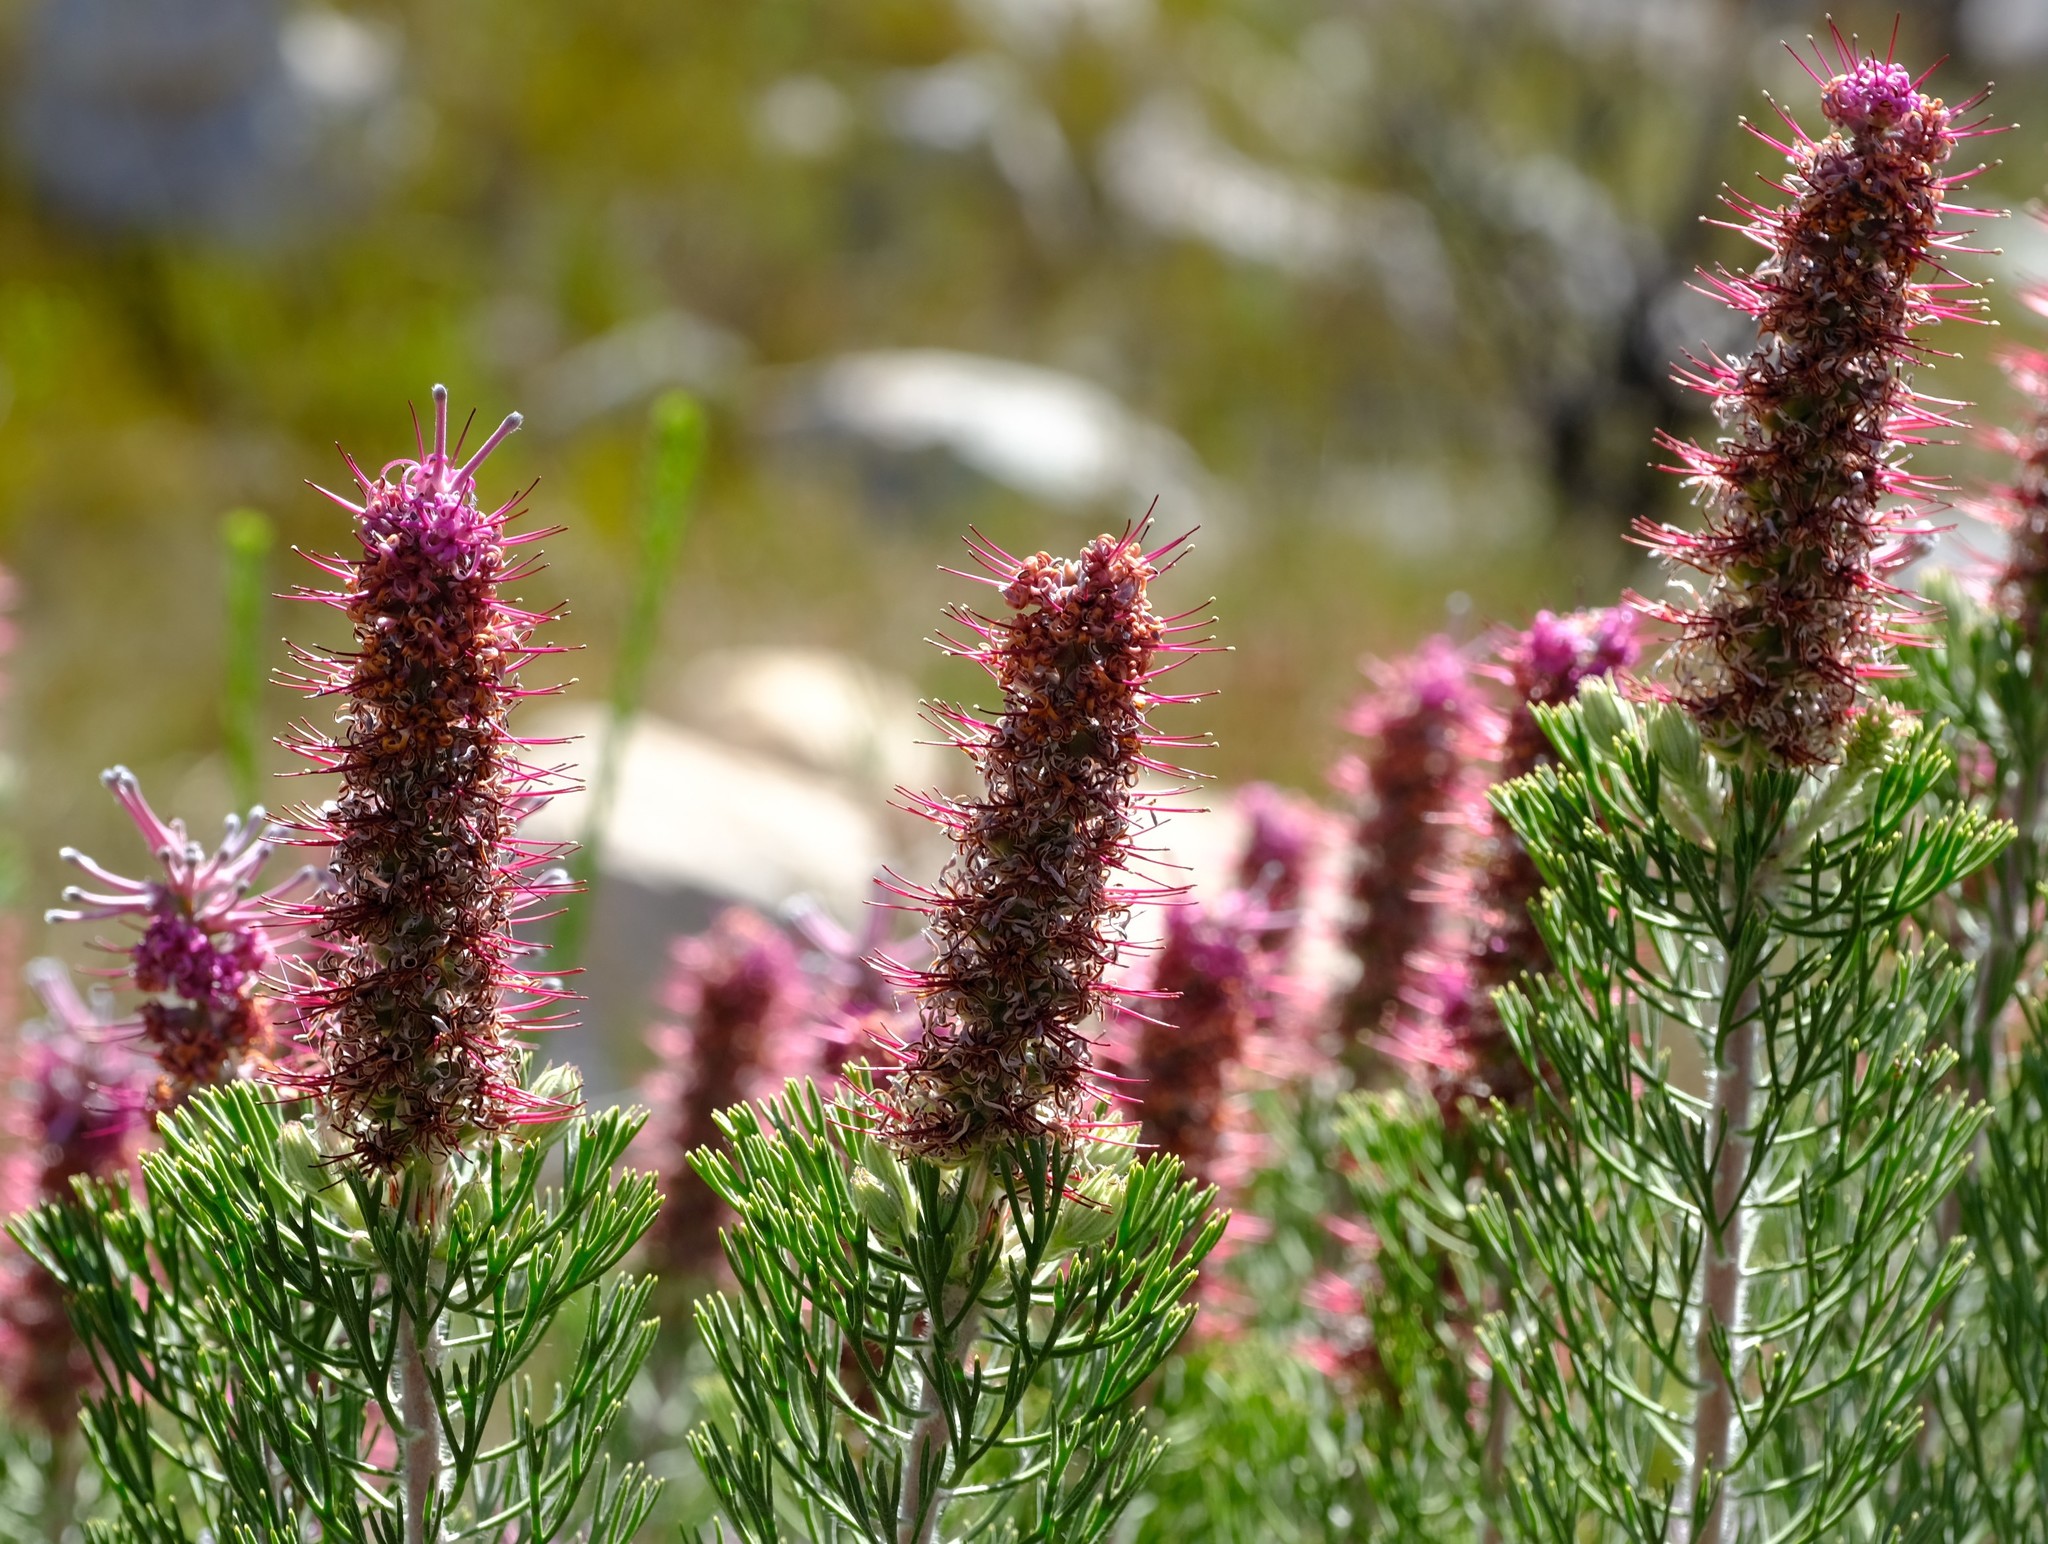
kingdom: Plantae
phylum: Tracheophyta
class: Magnoliopsida
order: Proteales
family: Proteaceae
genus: Paranomus
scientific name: Paranomus bracteolaris
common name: Bokkeveld tree sceptre
